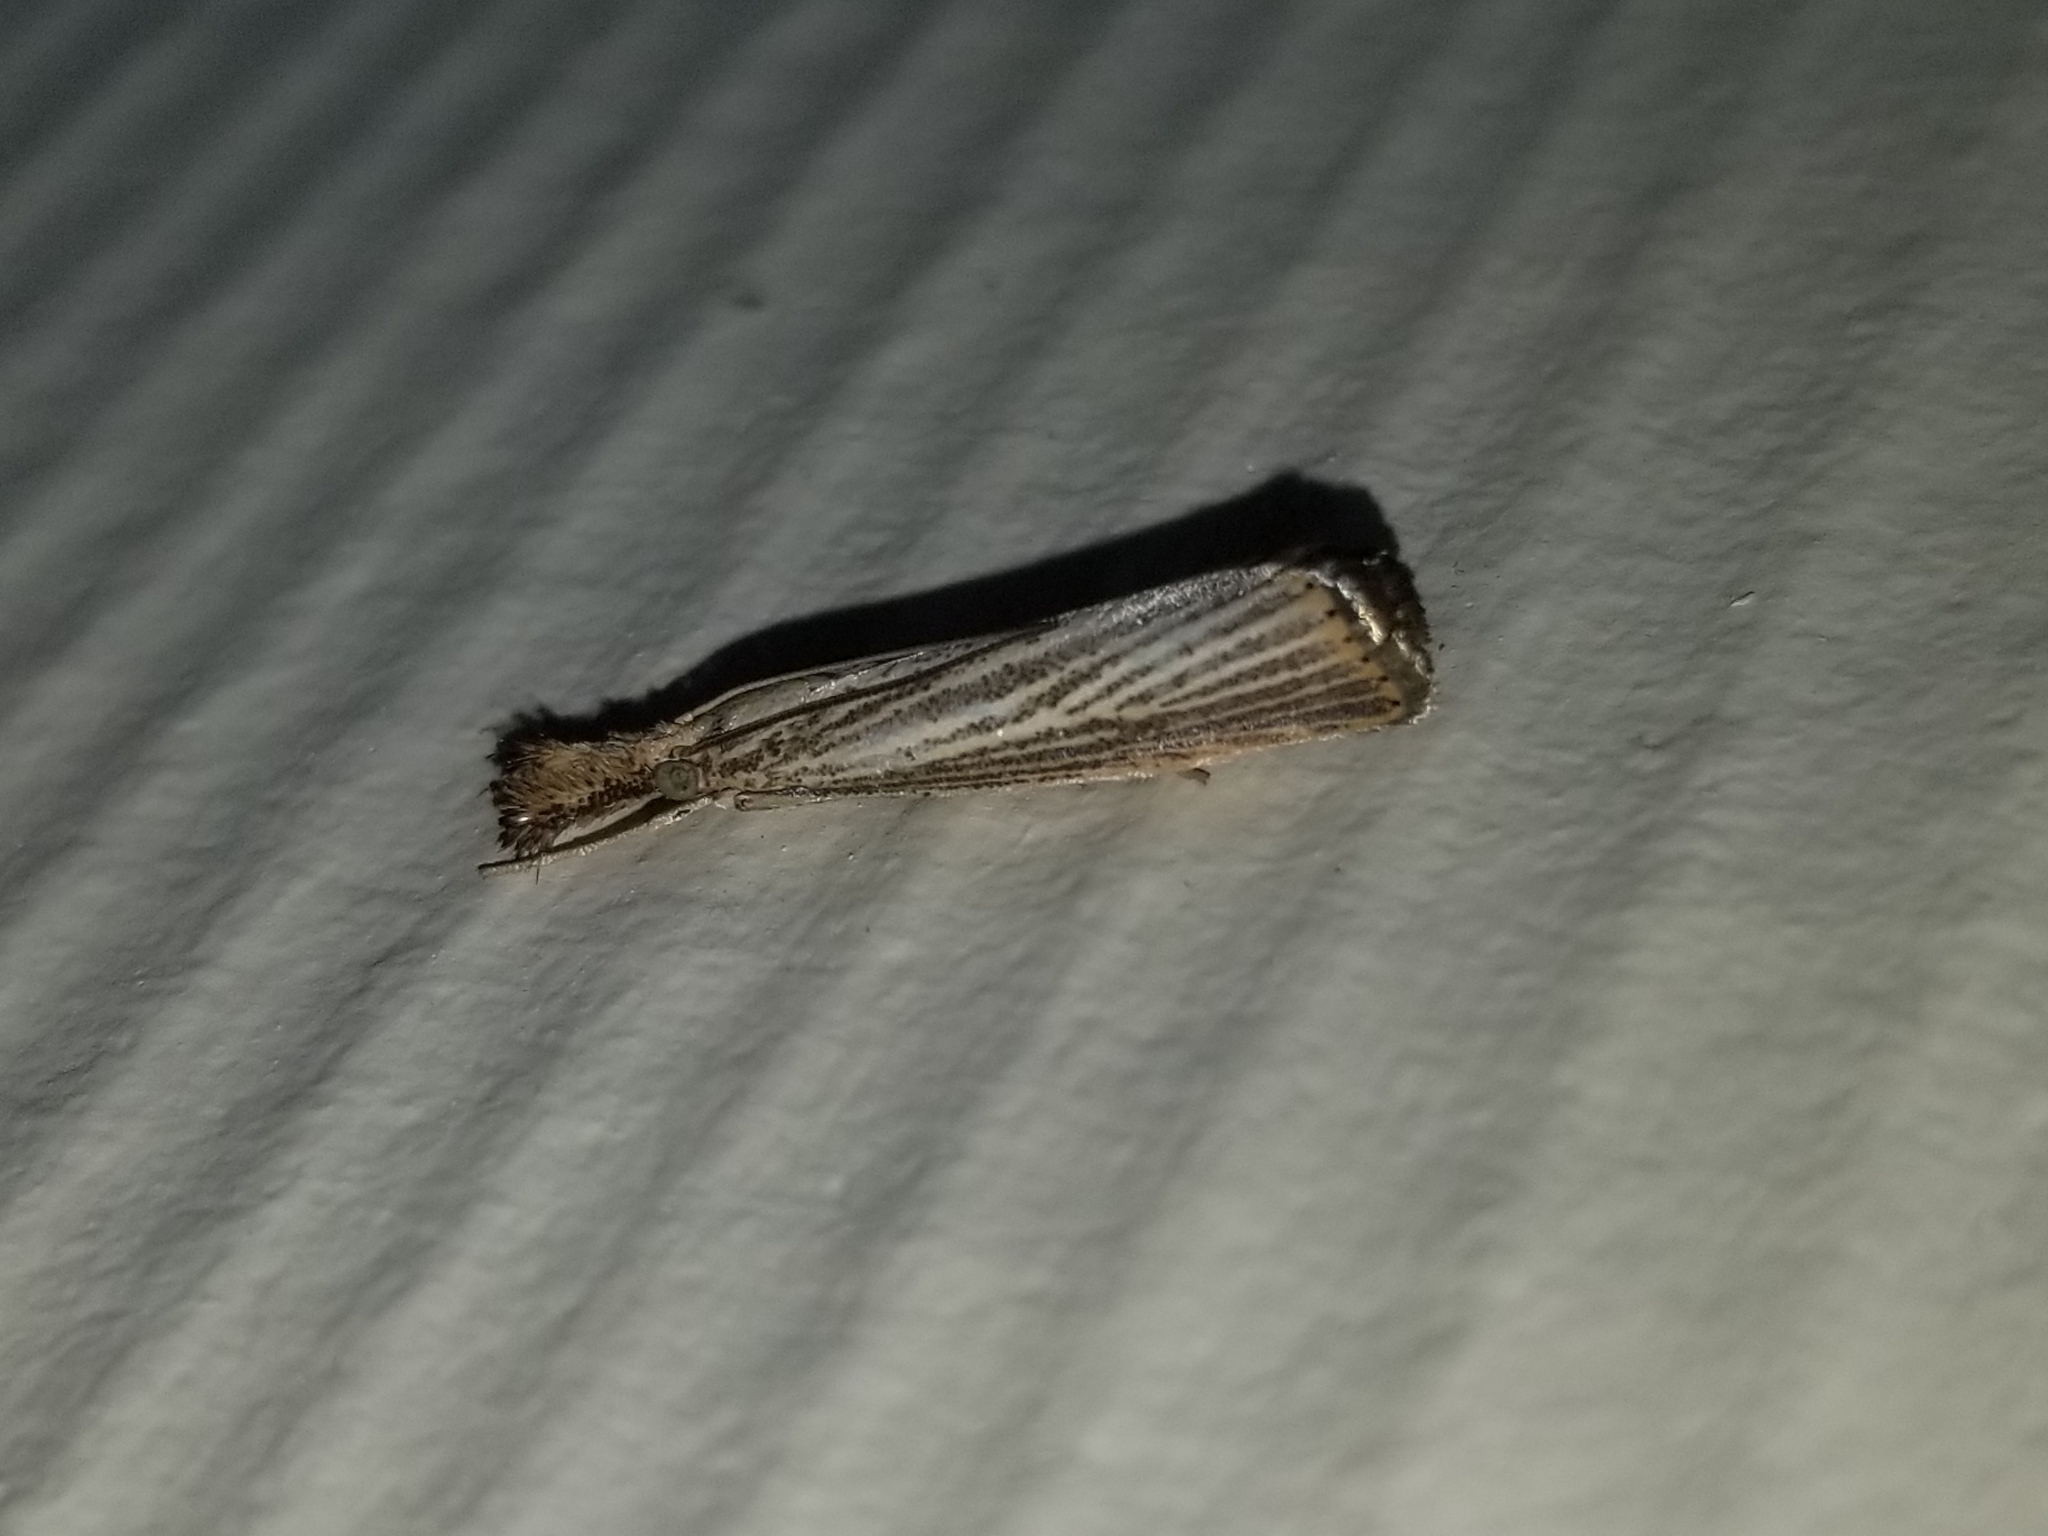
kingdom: Animalia
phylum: Arthropoda
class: Insecta
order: Lepidoptera
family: Crambidae
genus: Agriphila
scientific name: Agriphila vulgivagellus
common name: Vagabond crambus moth
